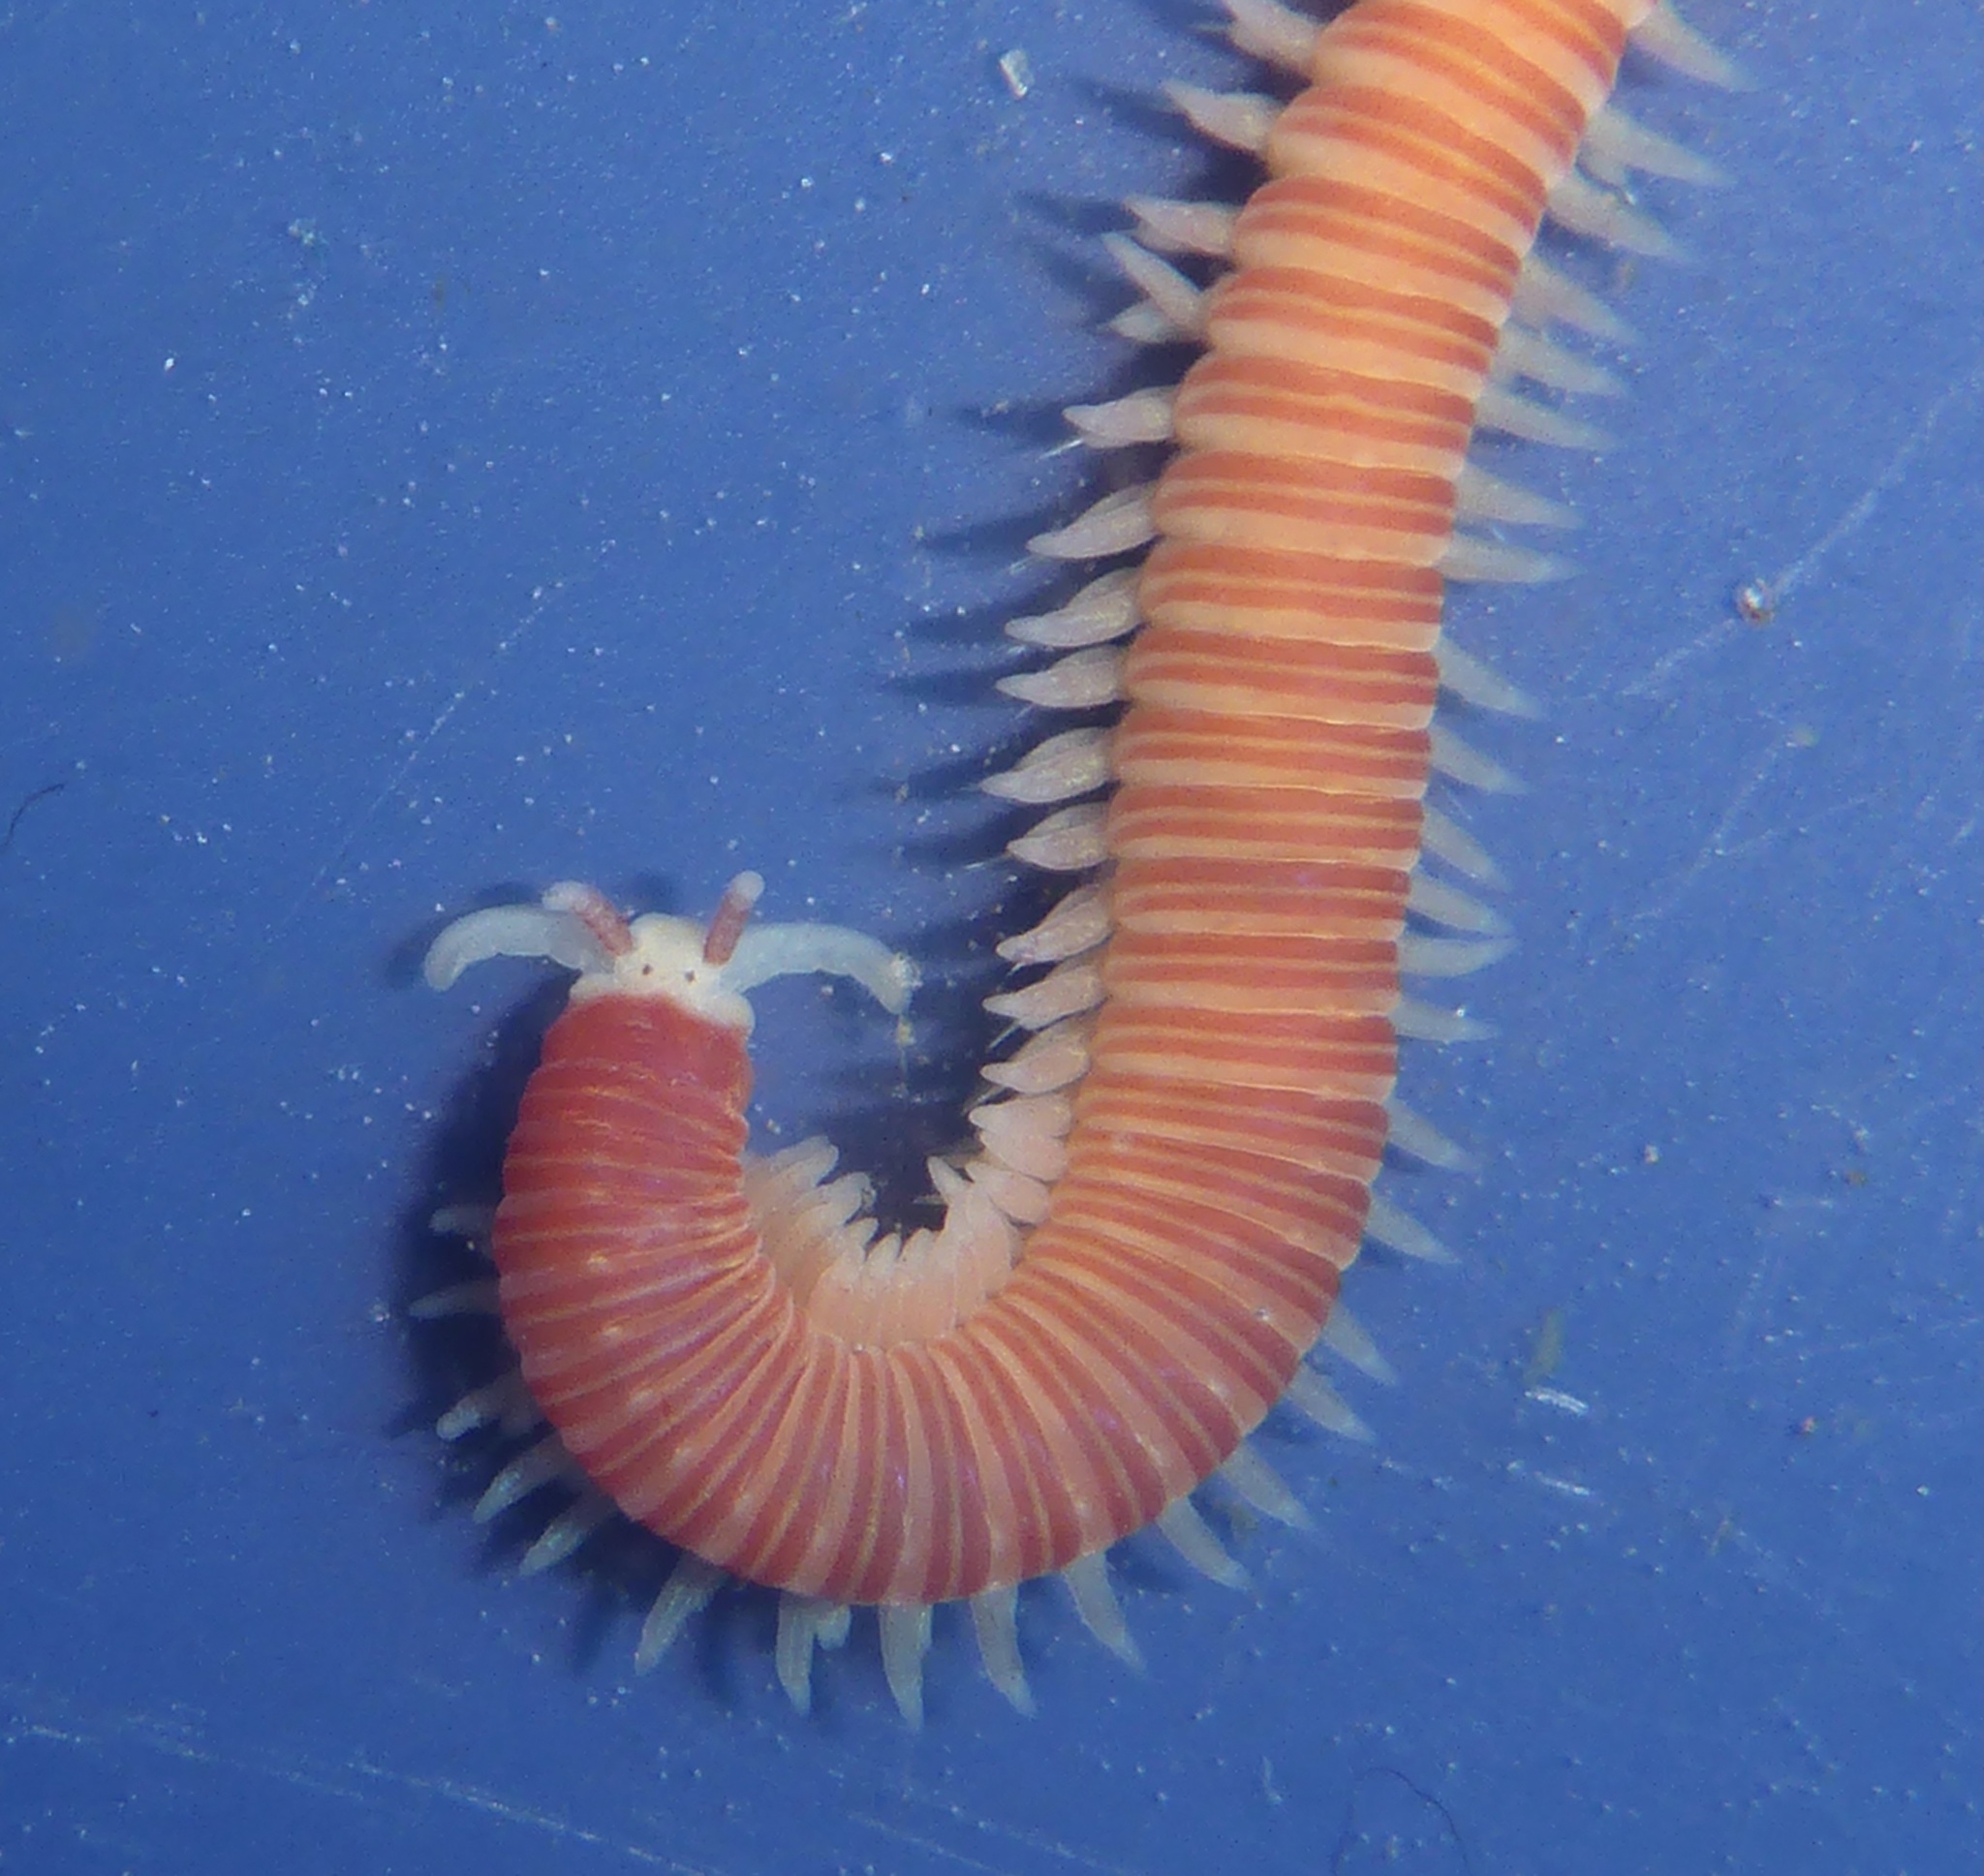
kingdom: Animalia
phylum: Annelida
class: Polychaeta
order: Eunicida
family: Dorvilleidae
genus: Dorvillea
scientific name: Dorvillea moniloceras
